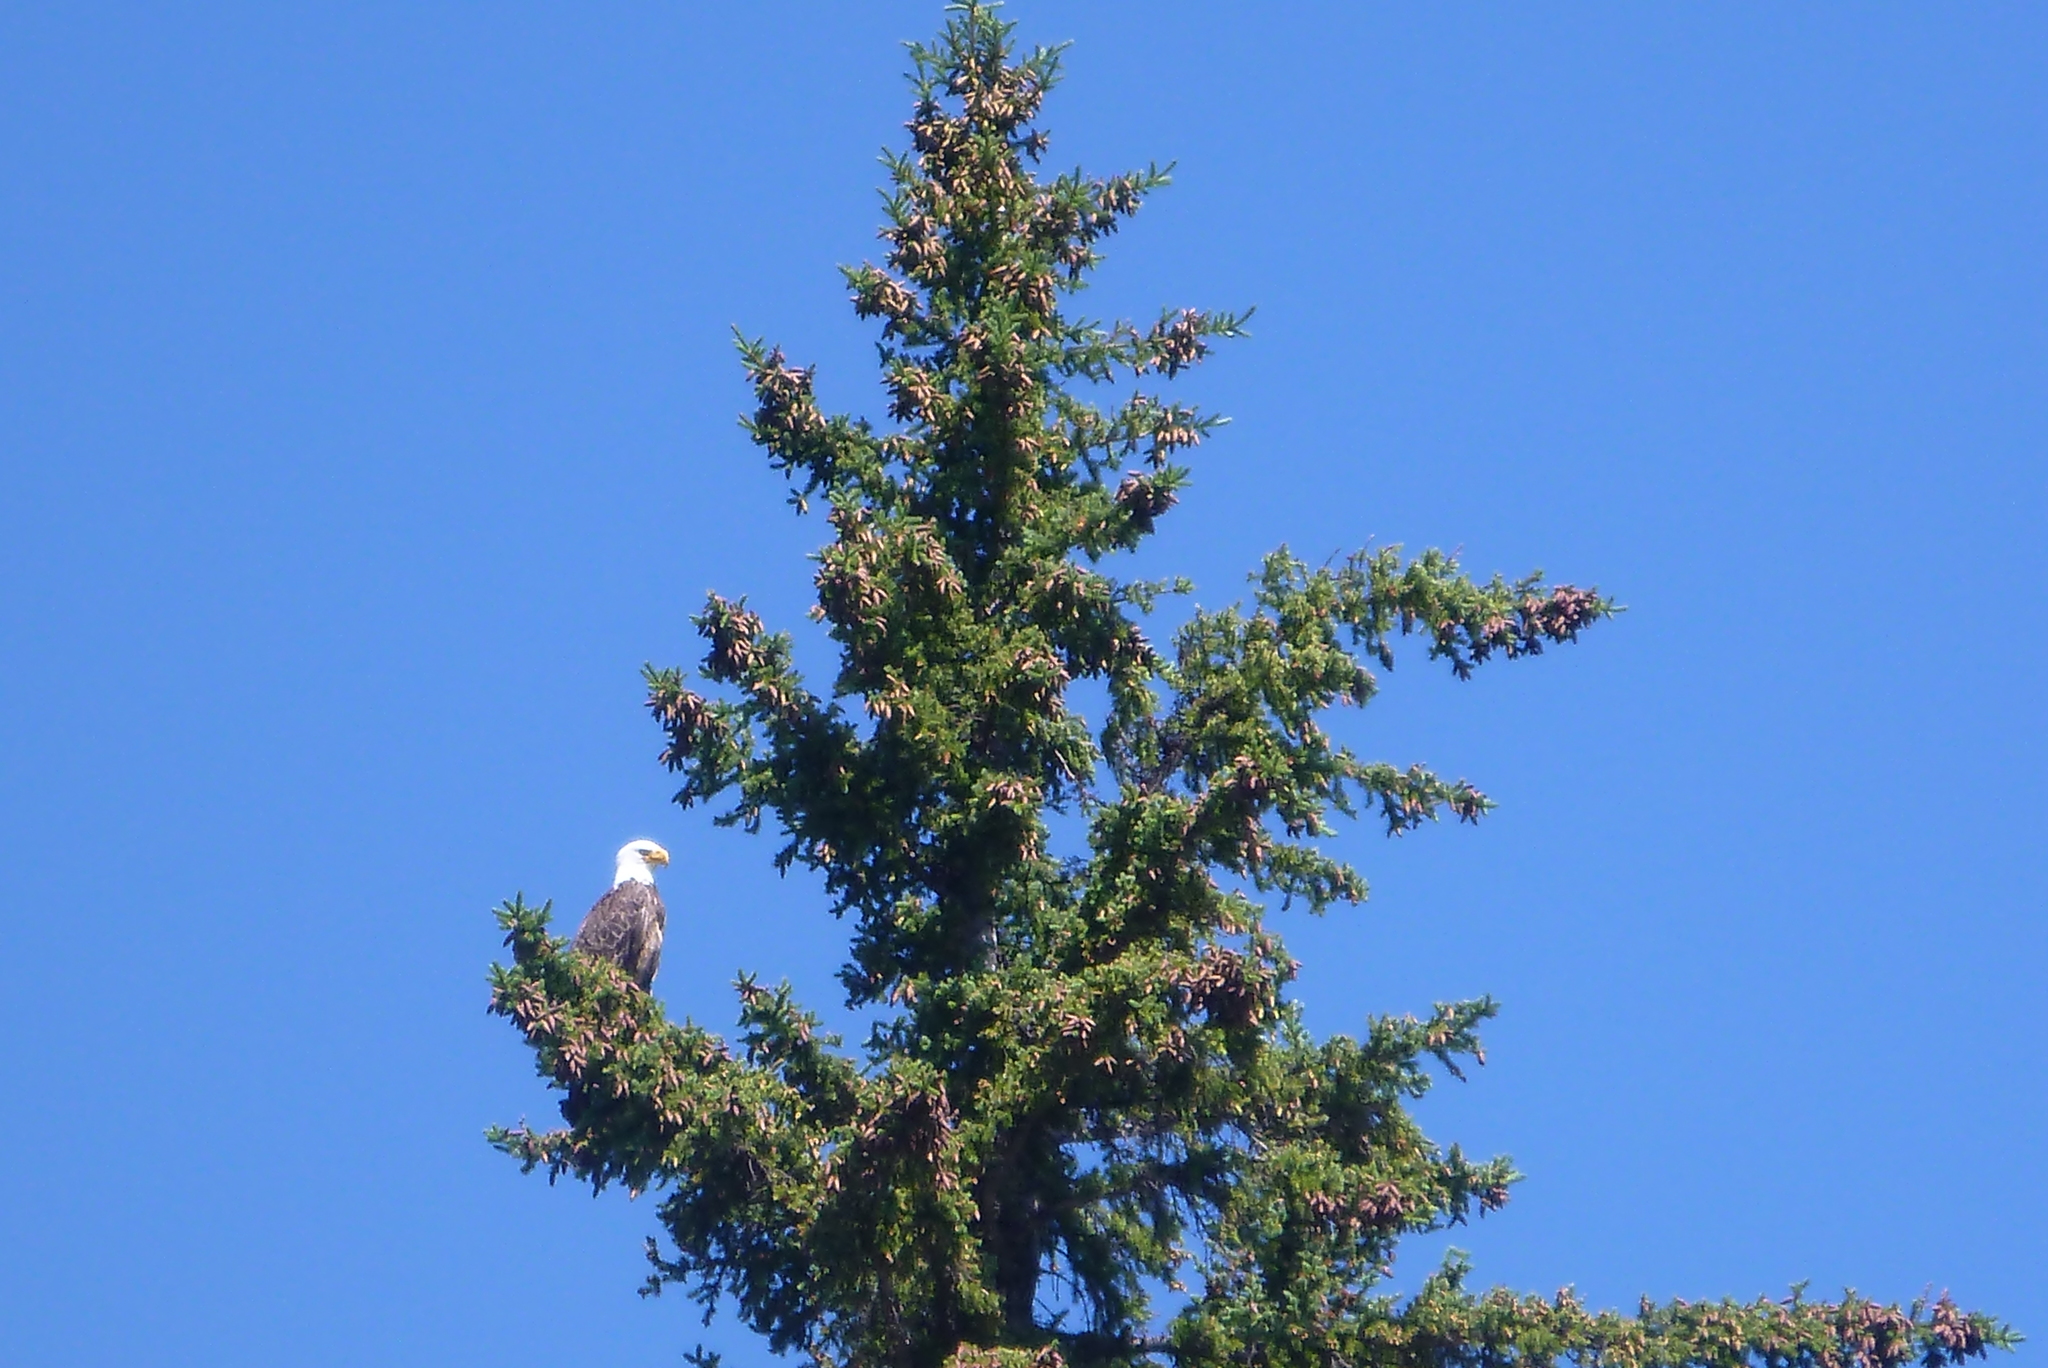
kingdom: Animalia
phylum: Chordata
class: Aves
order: Accipitriformes
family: Accipitridae
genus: Haliaeetus
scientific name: Haliaeetus leucocephalus
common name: Bald eagle
